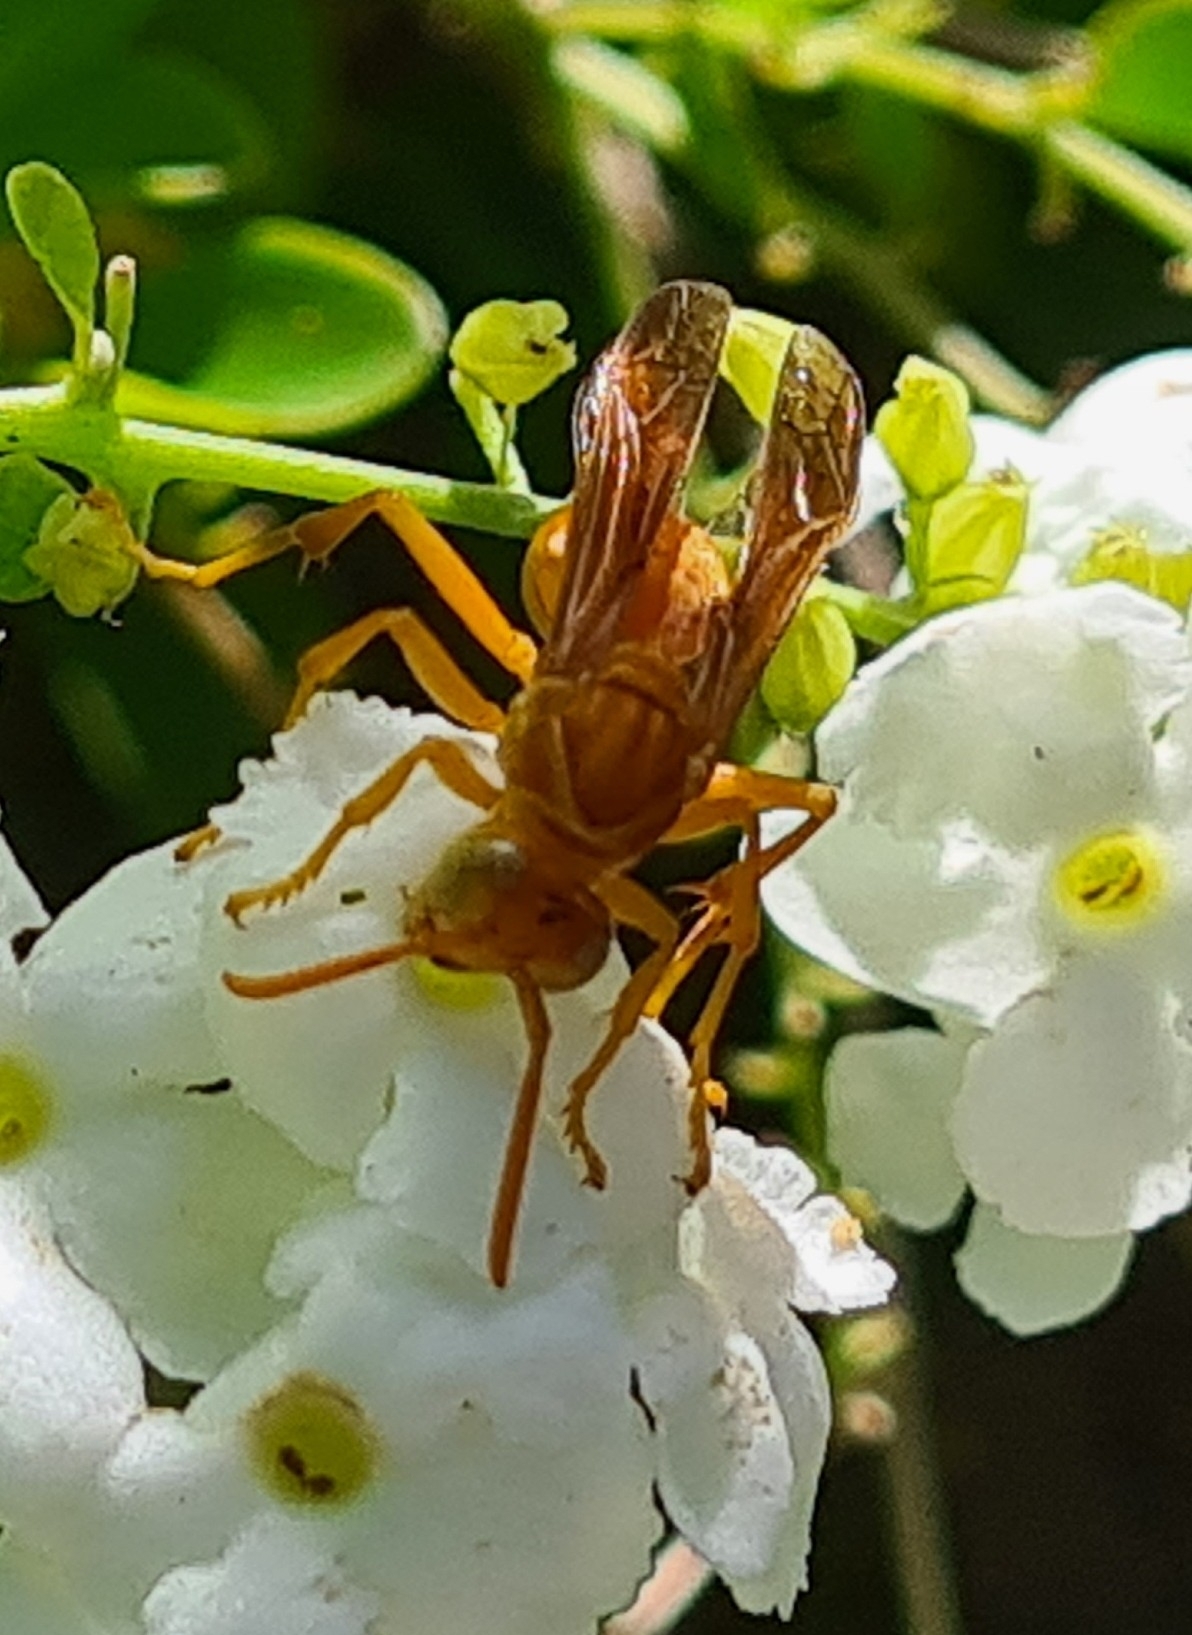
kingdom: Animalia
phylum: Arthropoda
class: Insecta
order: Hymenoptera
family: Eumenidae
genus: Polistes
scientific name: Polistes wattii
